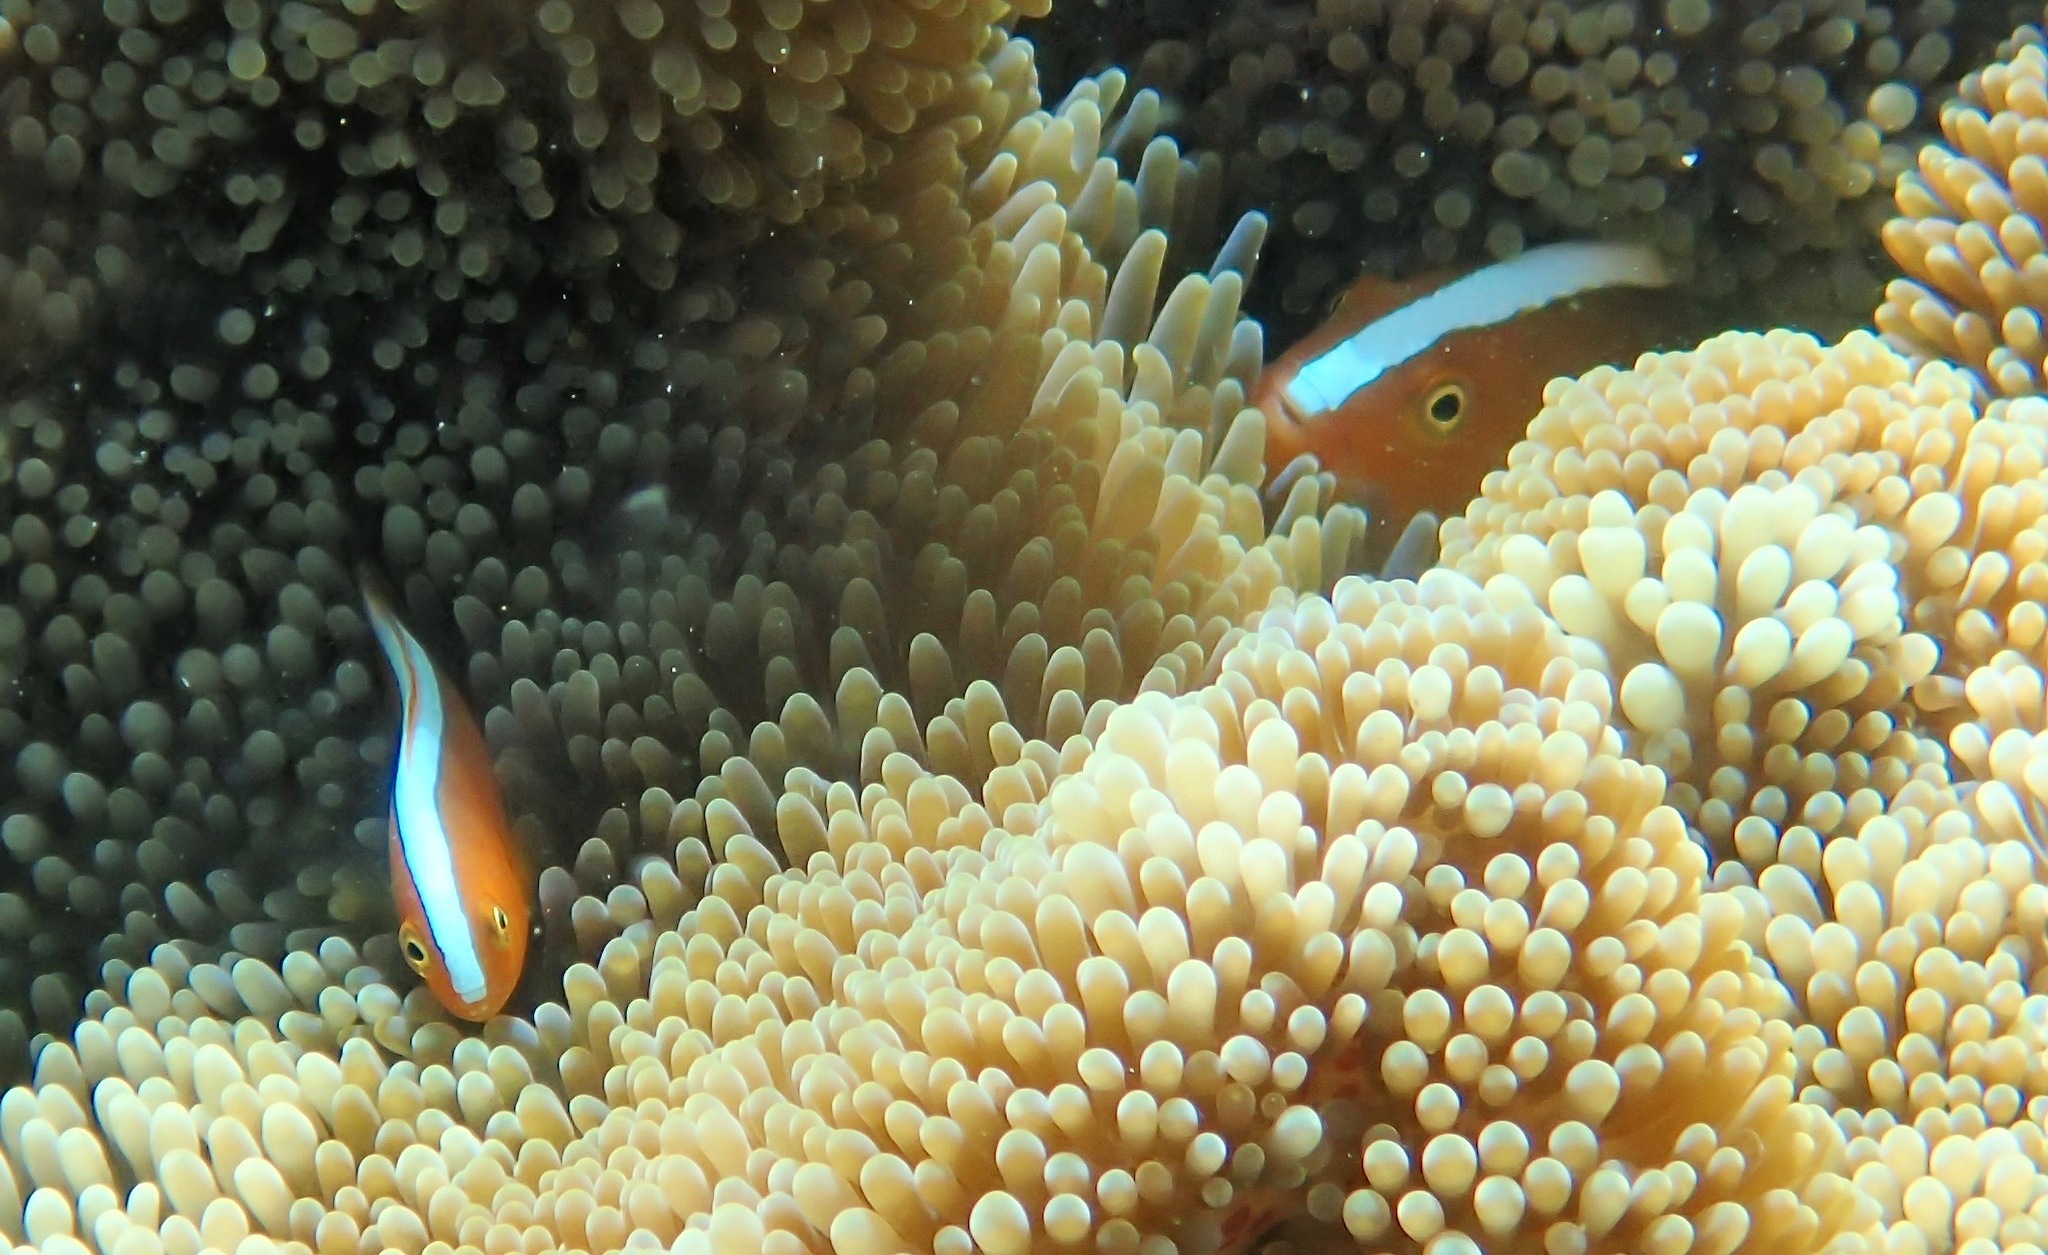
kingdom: Animalia
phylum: Chordata
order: Perciformes
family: Pomacentridae
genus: Amphiprion
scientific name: Amphiprion sandaracinos
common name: Orange anemonefish
